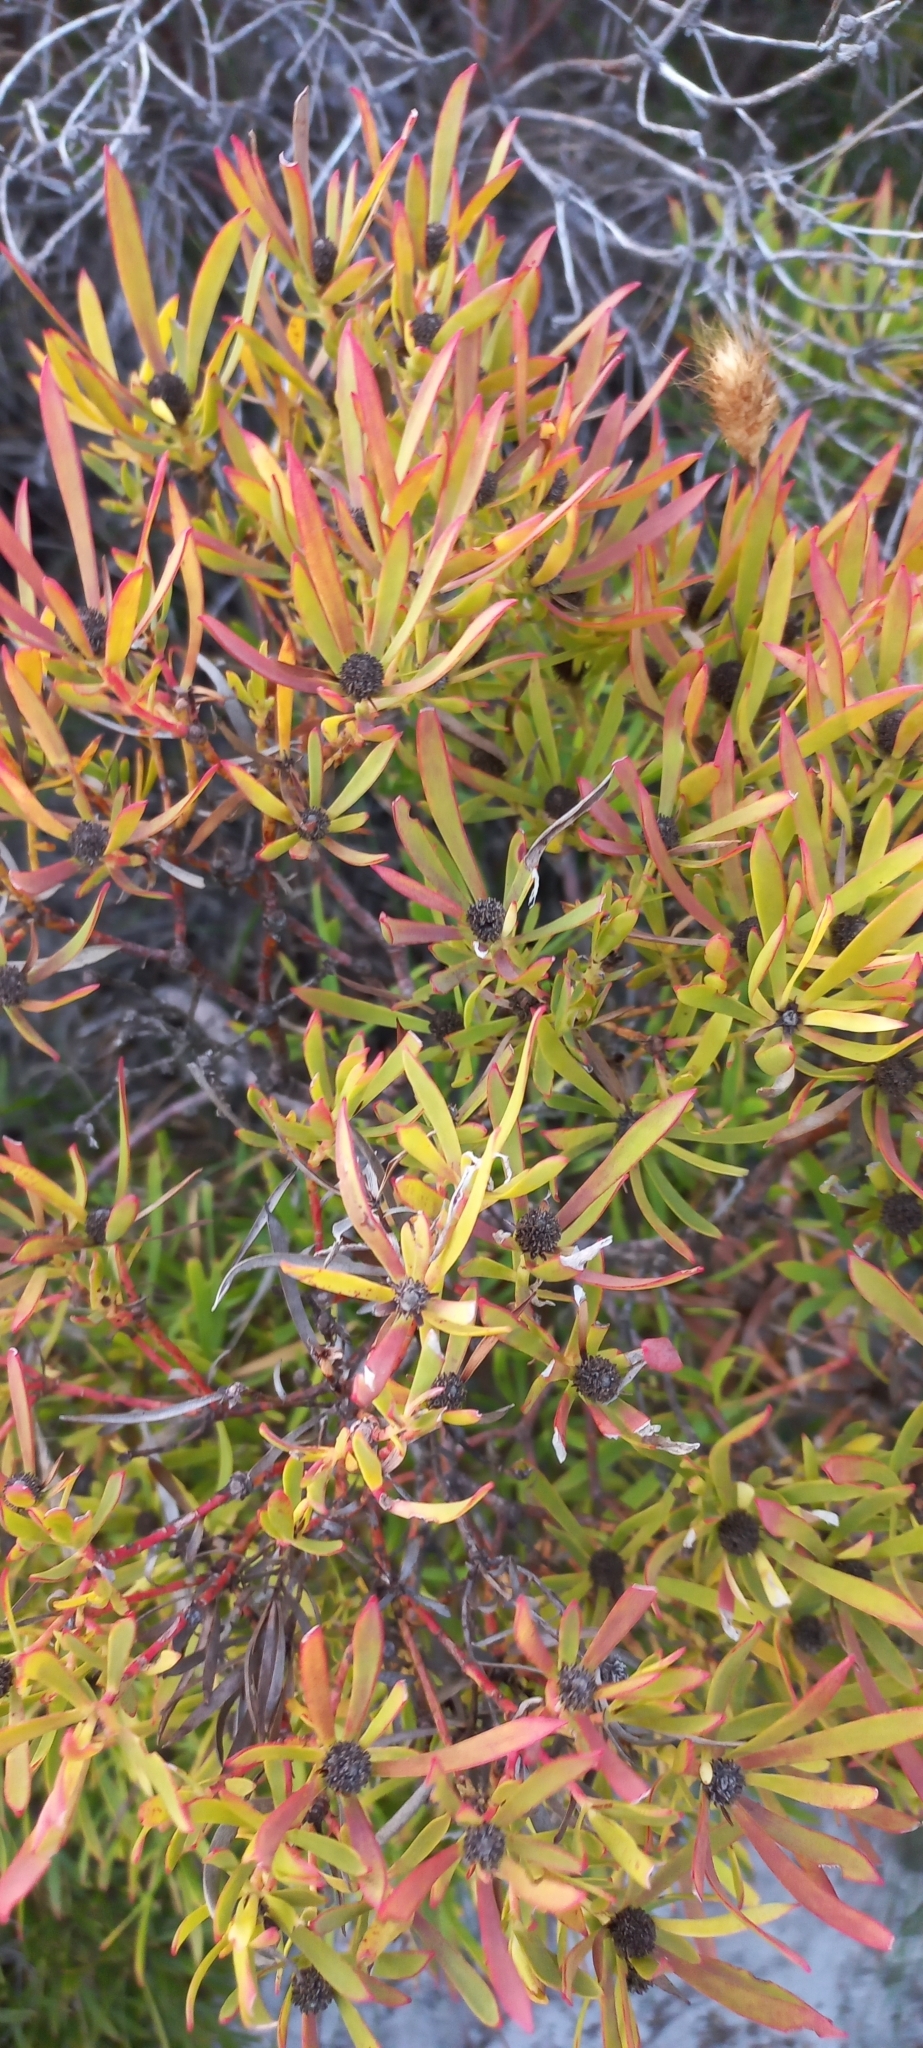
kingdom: Plantae
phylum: Tracheophyta
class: Magnoliopsida
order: Proteales
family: Proteaceae
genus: Leucadendron
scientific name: Leucadendron salignum
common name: Common sunshine conebush
